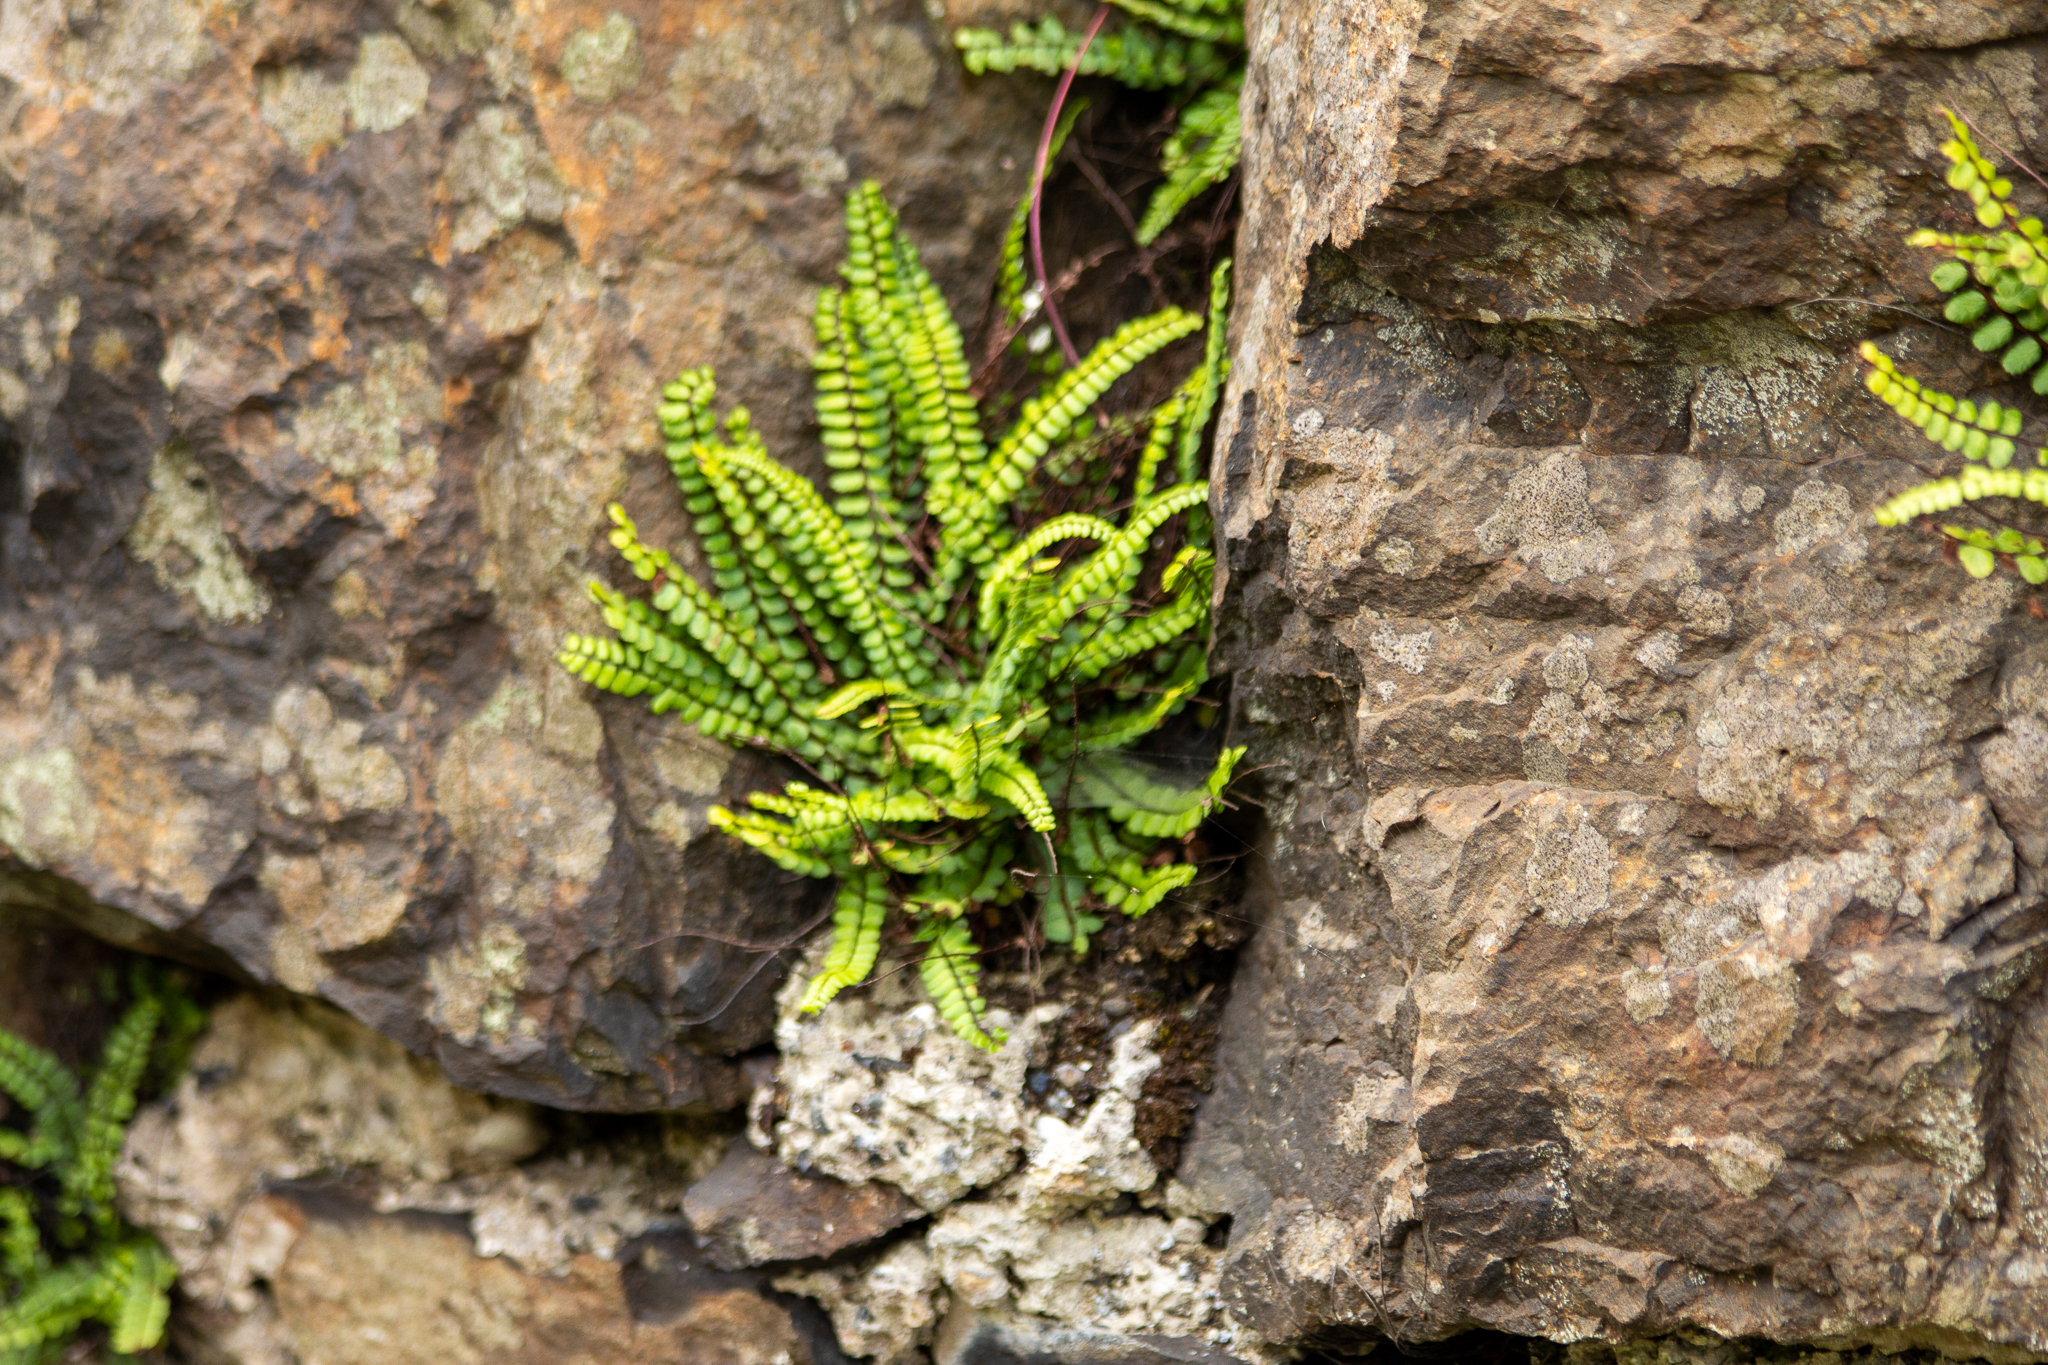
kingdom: Plantae
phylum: Tracheophyta
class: Polypodiopsida
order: Polypodiales
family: Aspleniaceae
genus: Asplenium
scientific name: Asplenium trichomanes
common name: Maidenhair spleenwort
